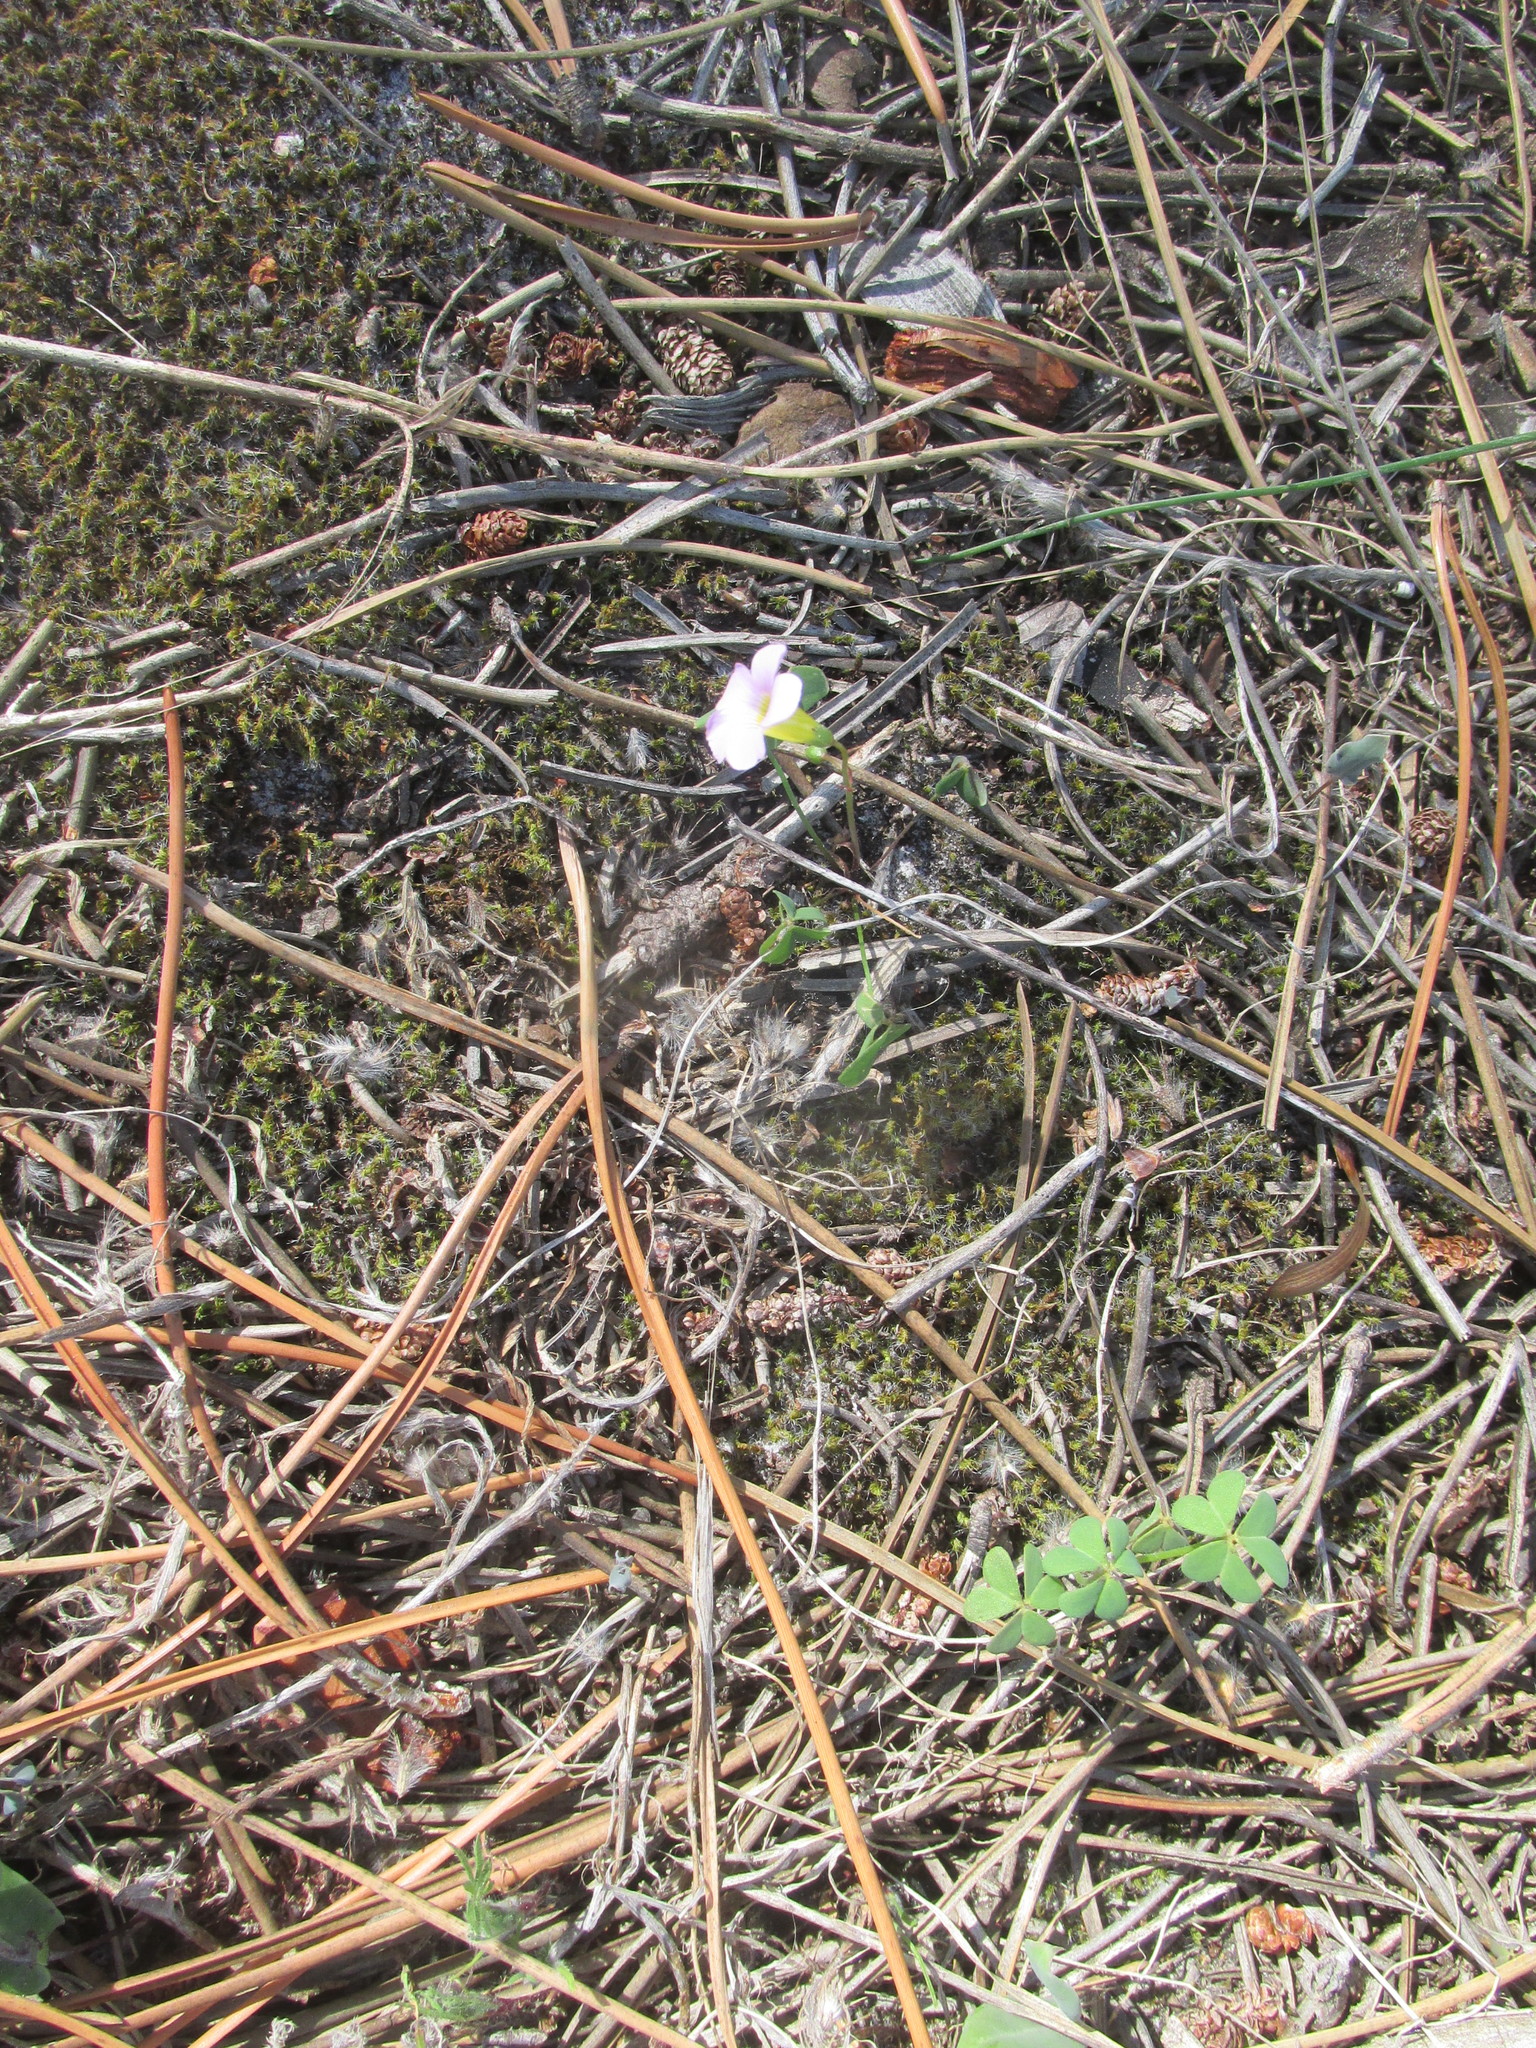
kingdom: Plantae
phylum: Tracheophyta
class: Magnoliopsida
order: Oxalidales
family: Oxalidaceae
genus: Oxalis
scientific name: Oxalis caprina
